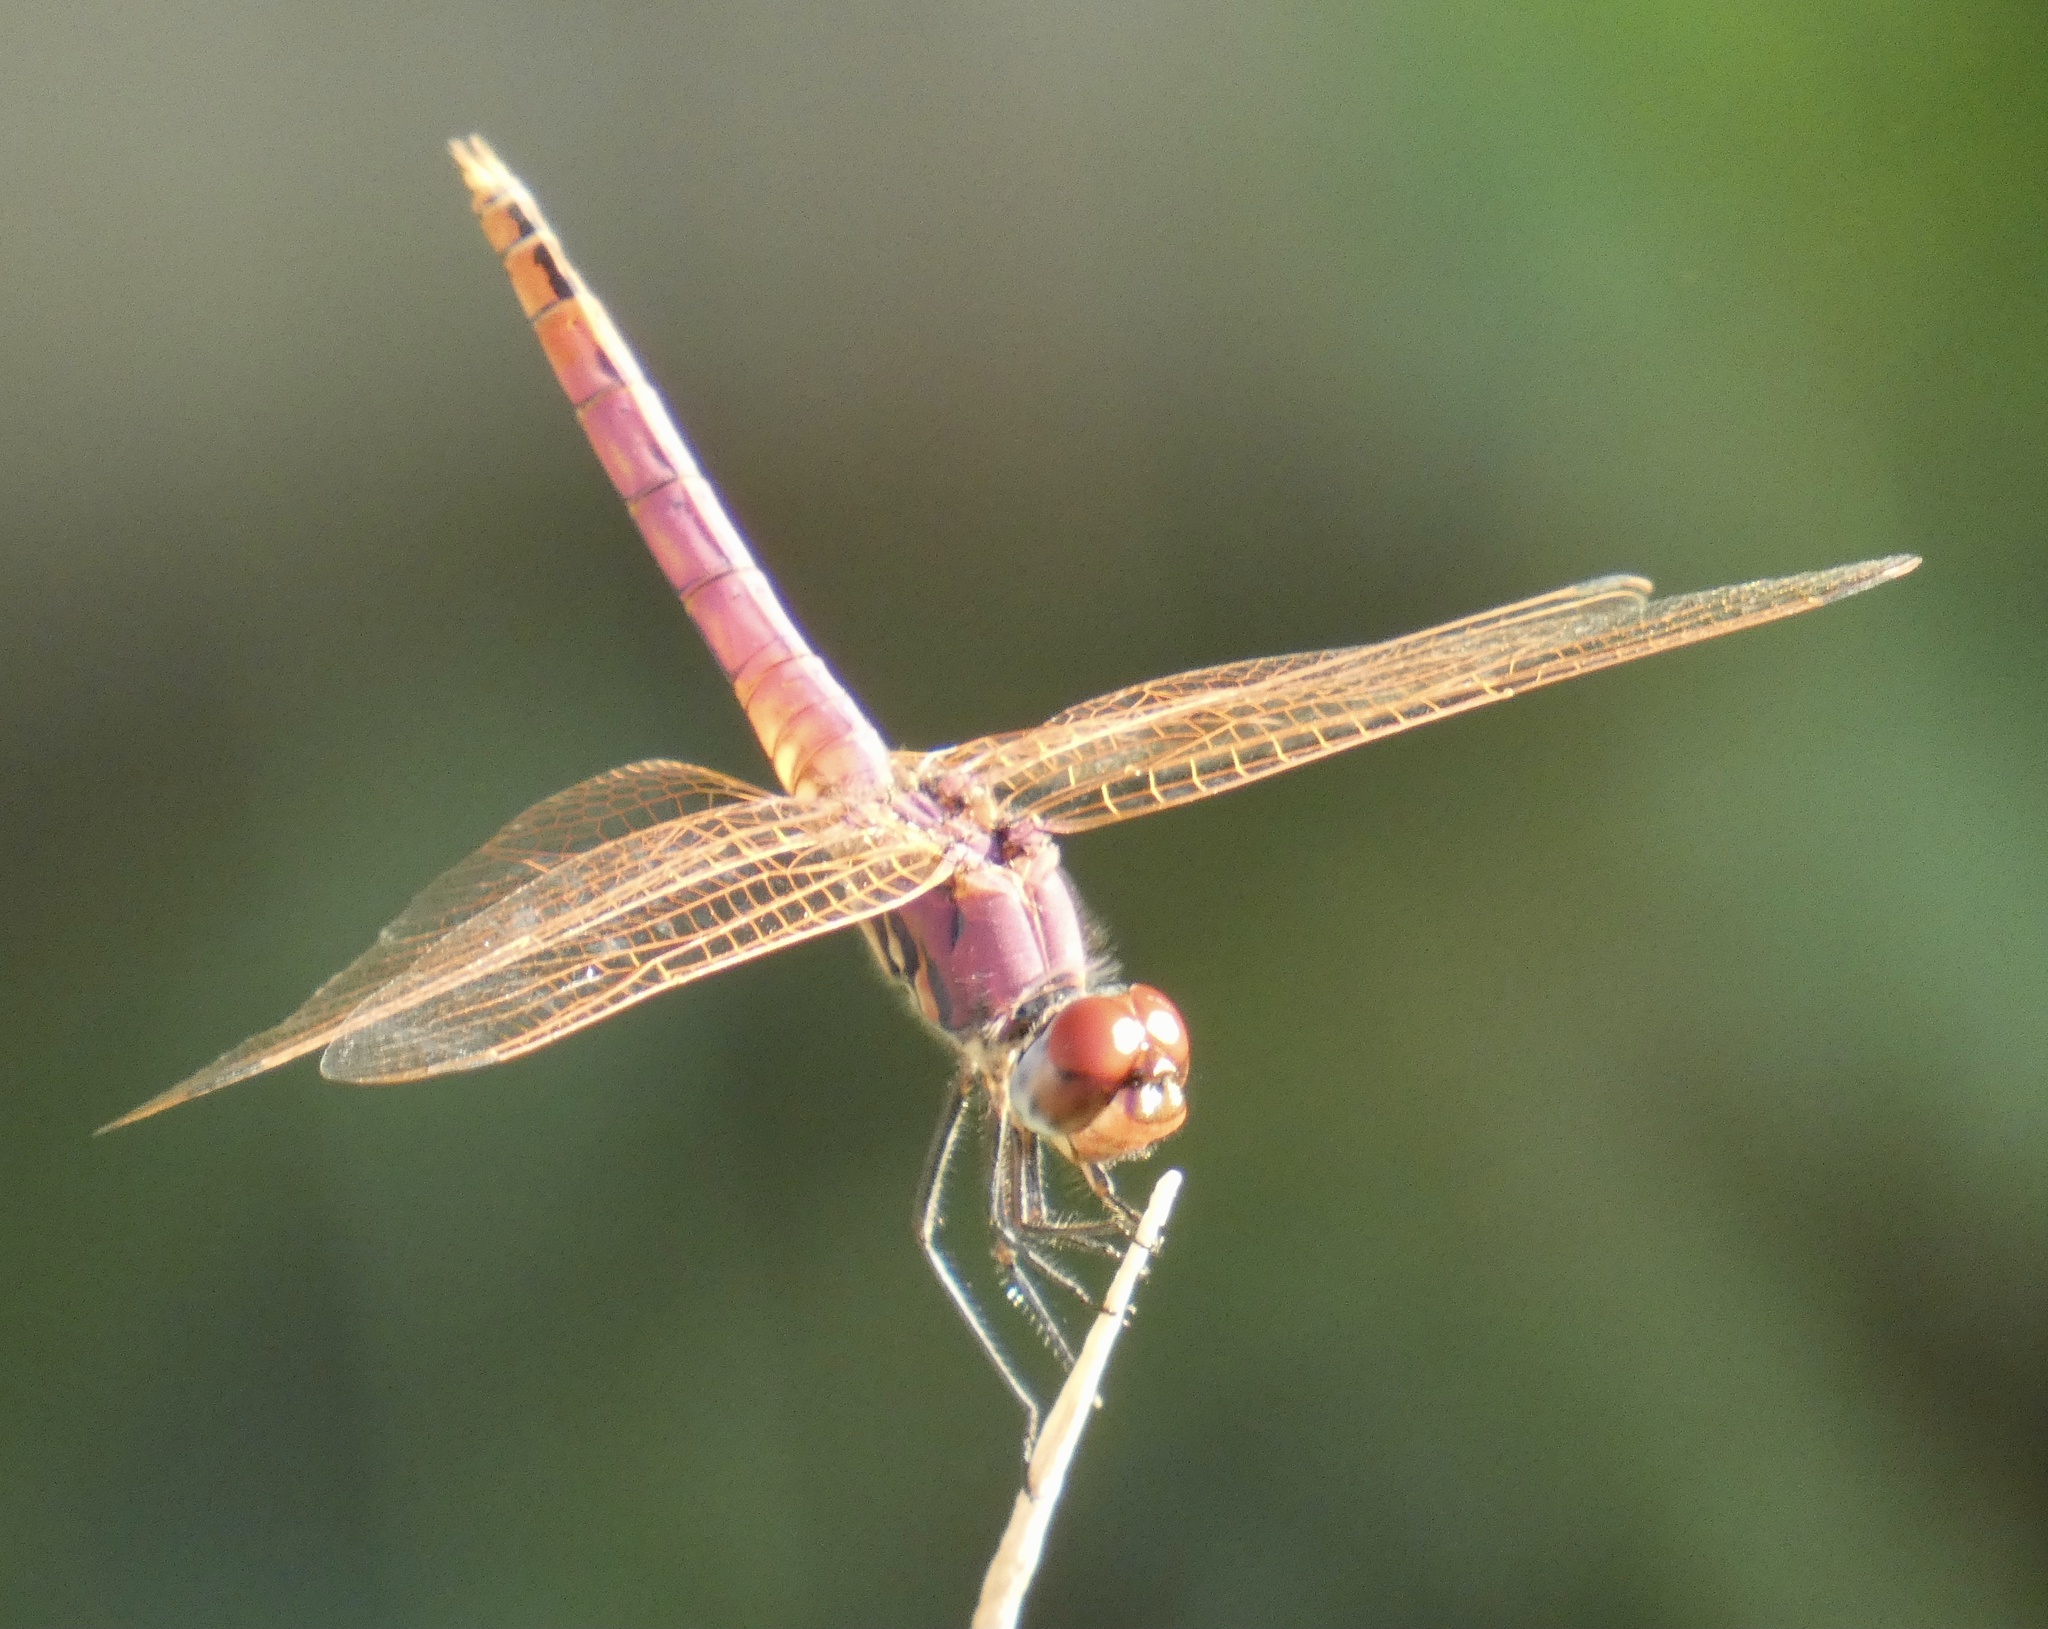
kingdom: Animalia
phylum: Arthropoda
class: Insecta
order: Odonata
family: Libellulidae
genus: Trithemis
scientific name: Trithemis annulata
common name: Violet dropwing
